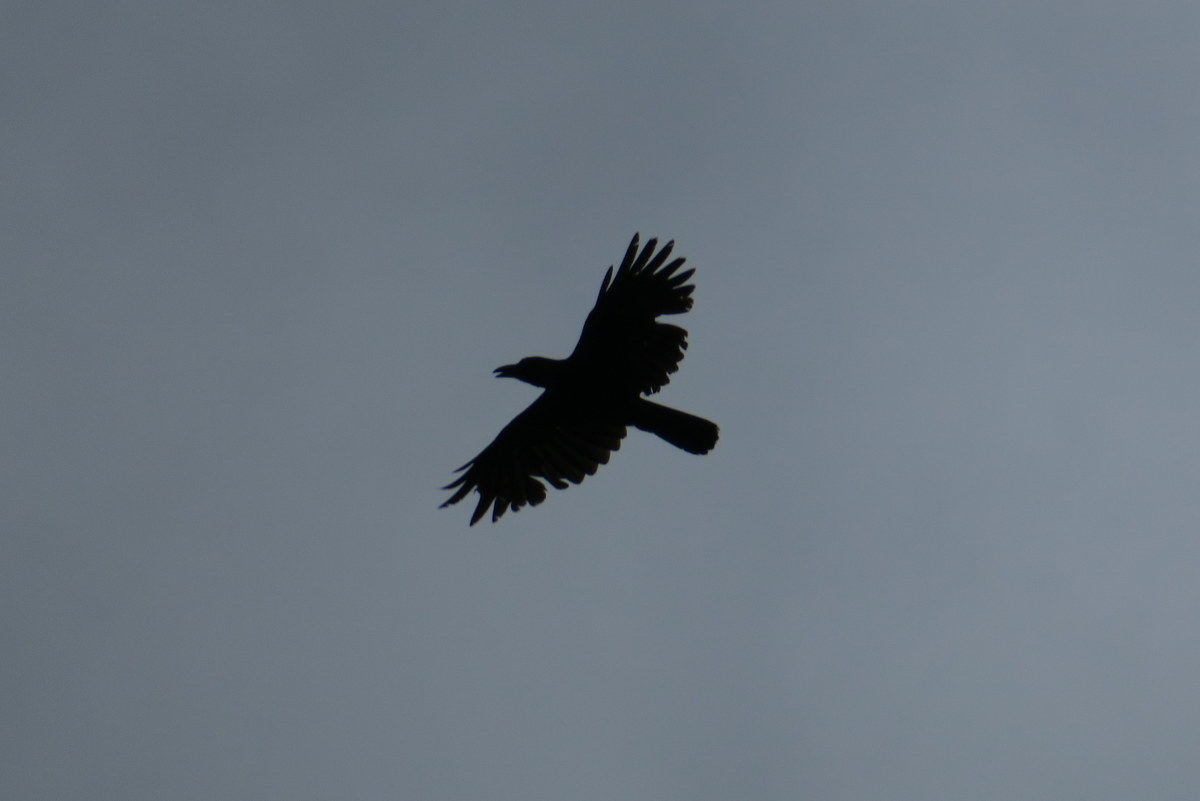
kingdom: Animalia
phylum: Chordata
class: Aves
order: Passeriformes
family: Corvidae
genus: Corvus
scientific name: Corvus macrorhynchos
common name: Large-billed crow
